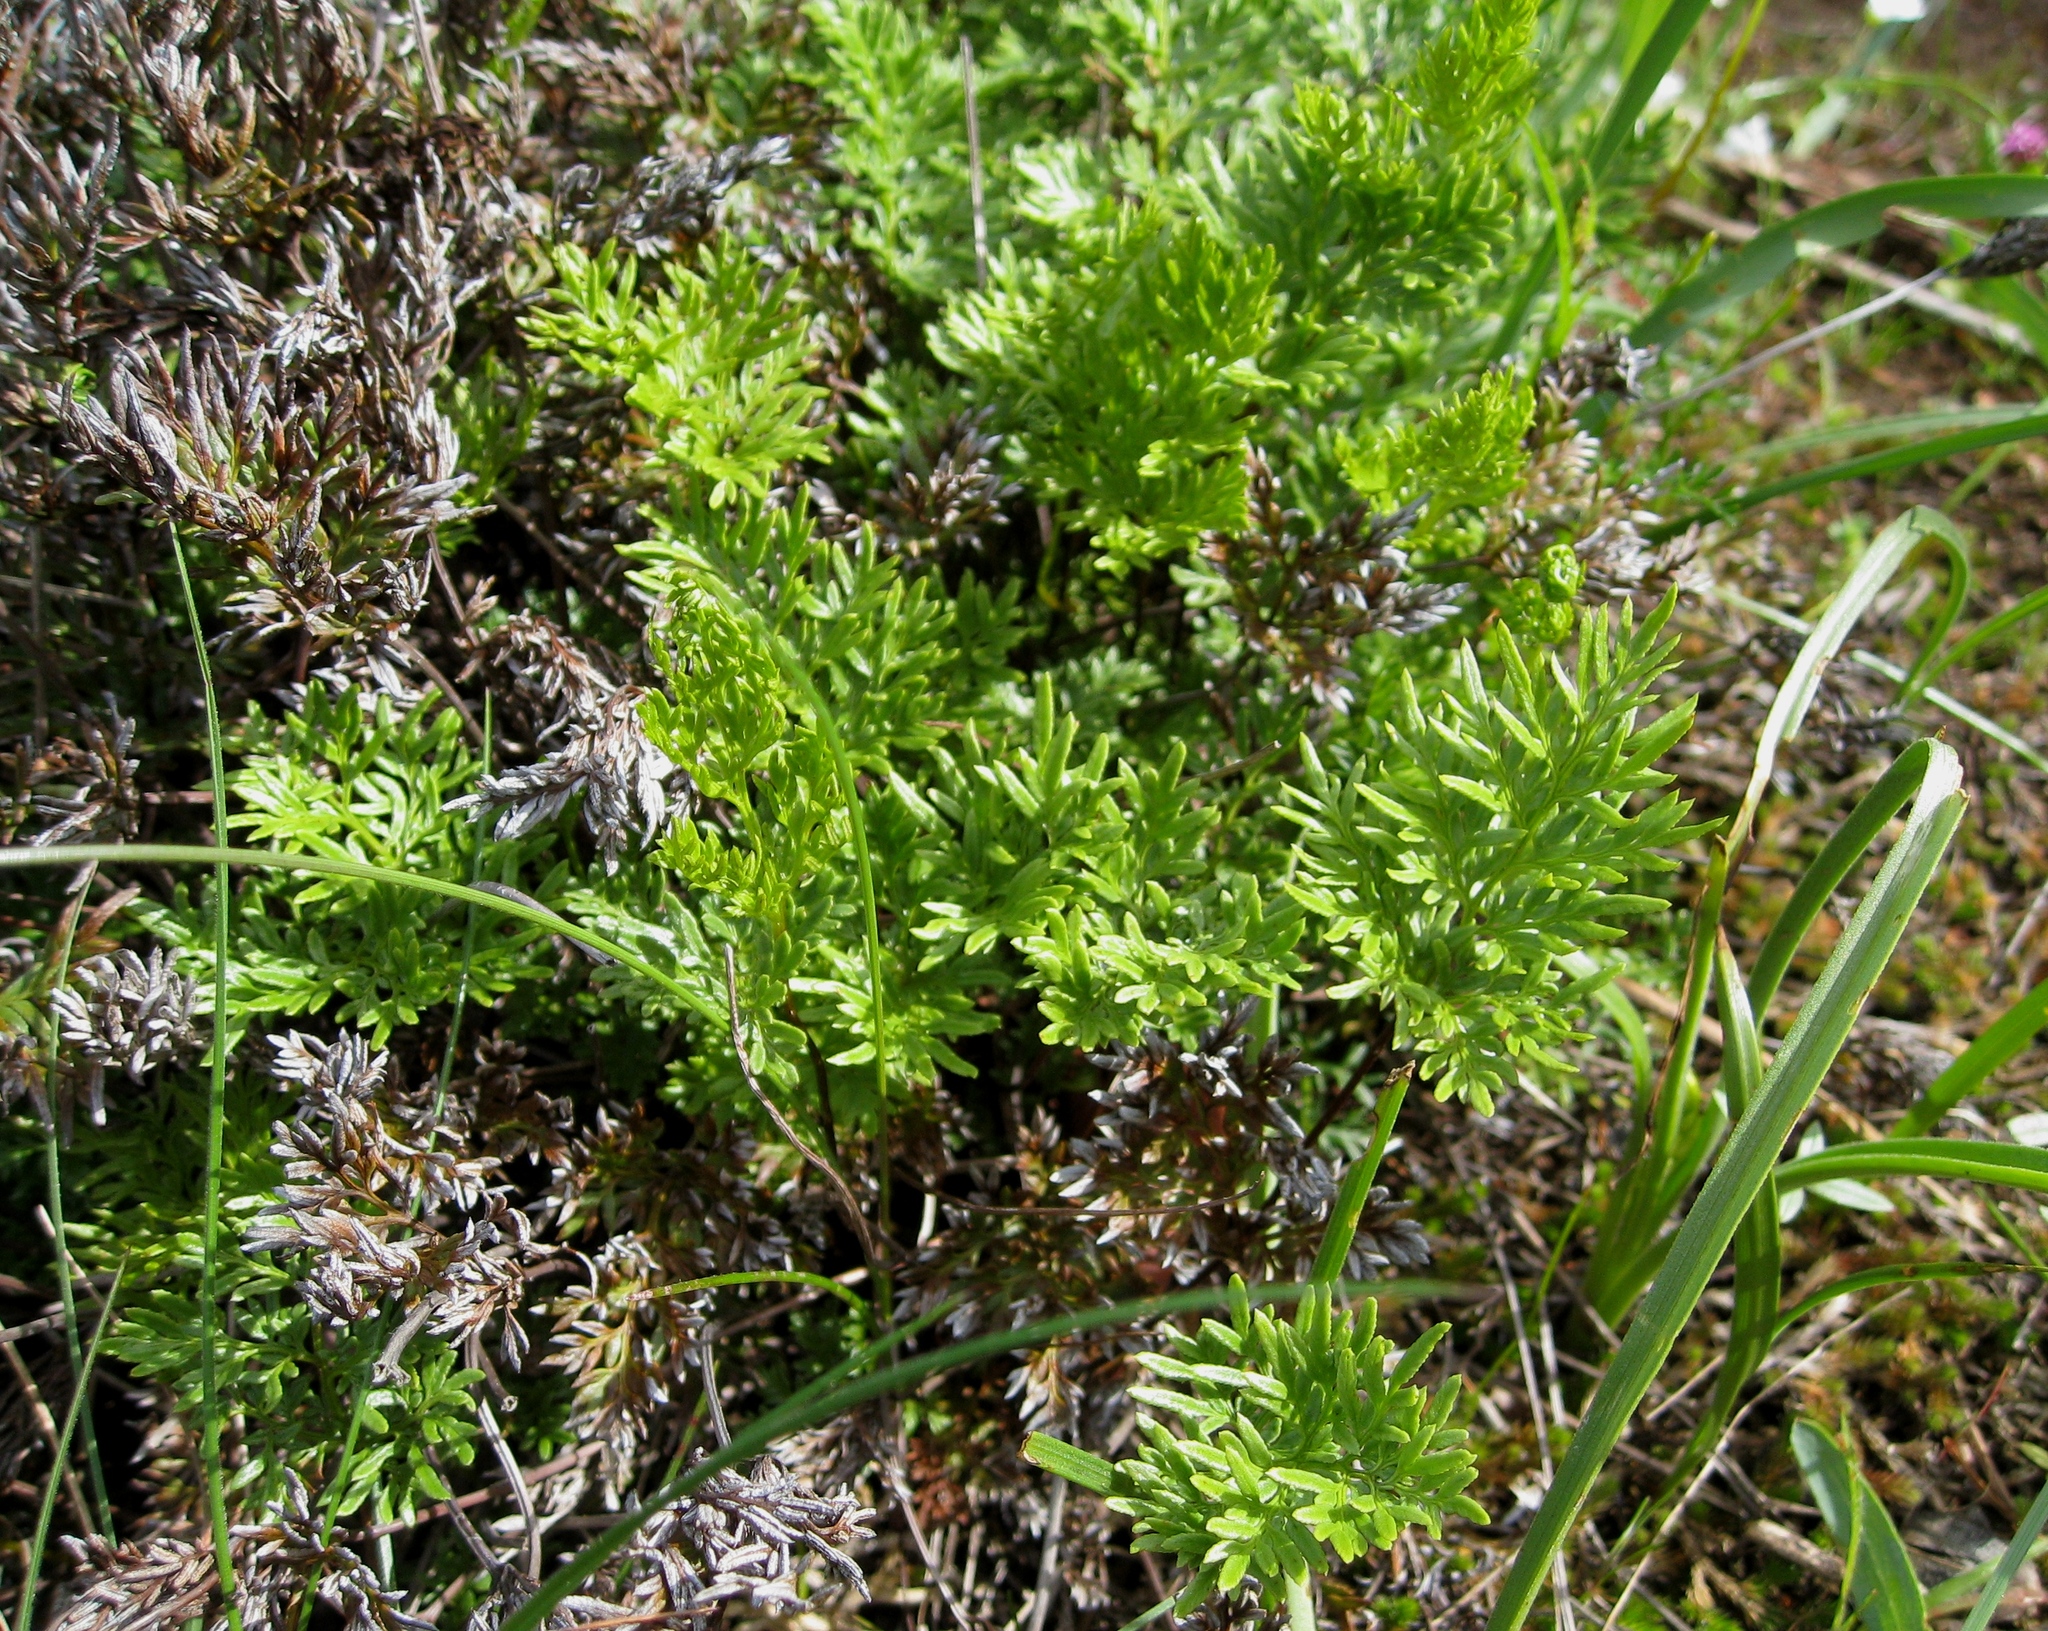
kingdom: Plantae
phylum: Tracheophyta
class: Polypodiopsida
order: Polypodiales
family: Pteridaceae
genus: Aspidotis
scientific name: Aspidotis densa
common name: Indian's dream
